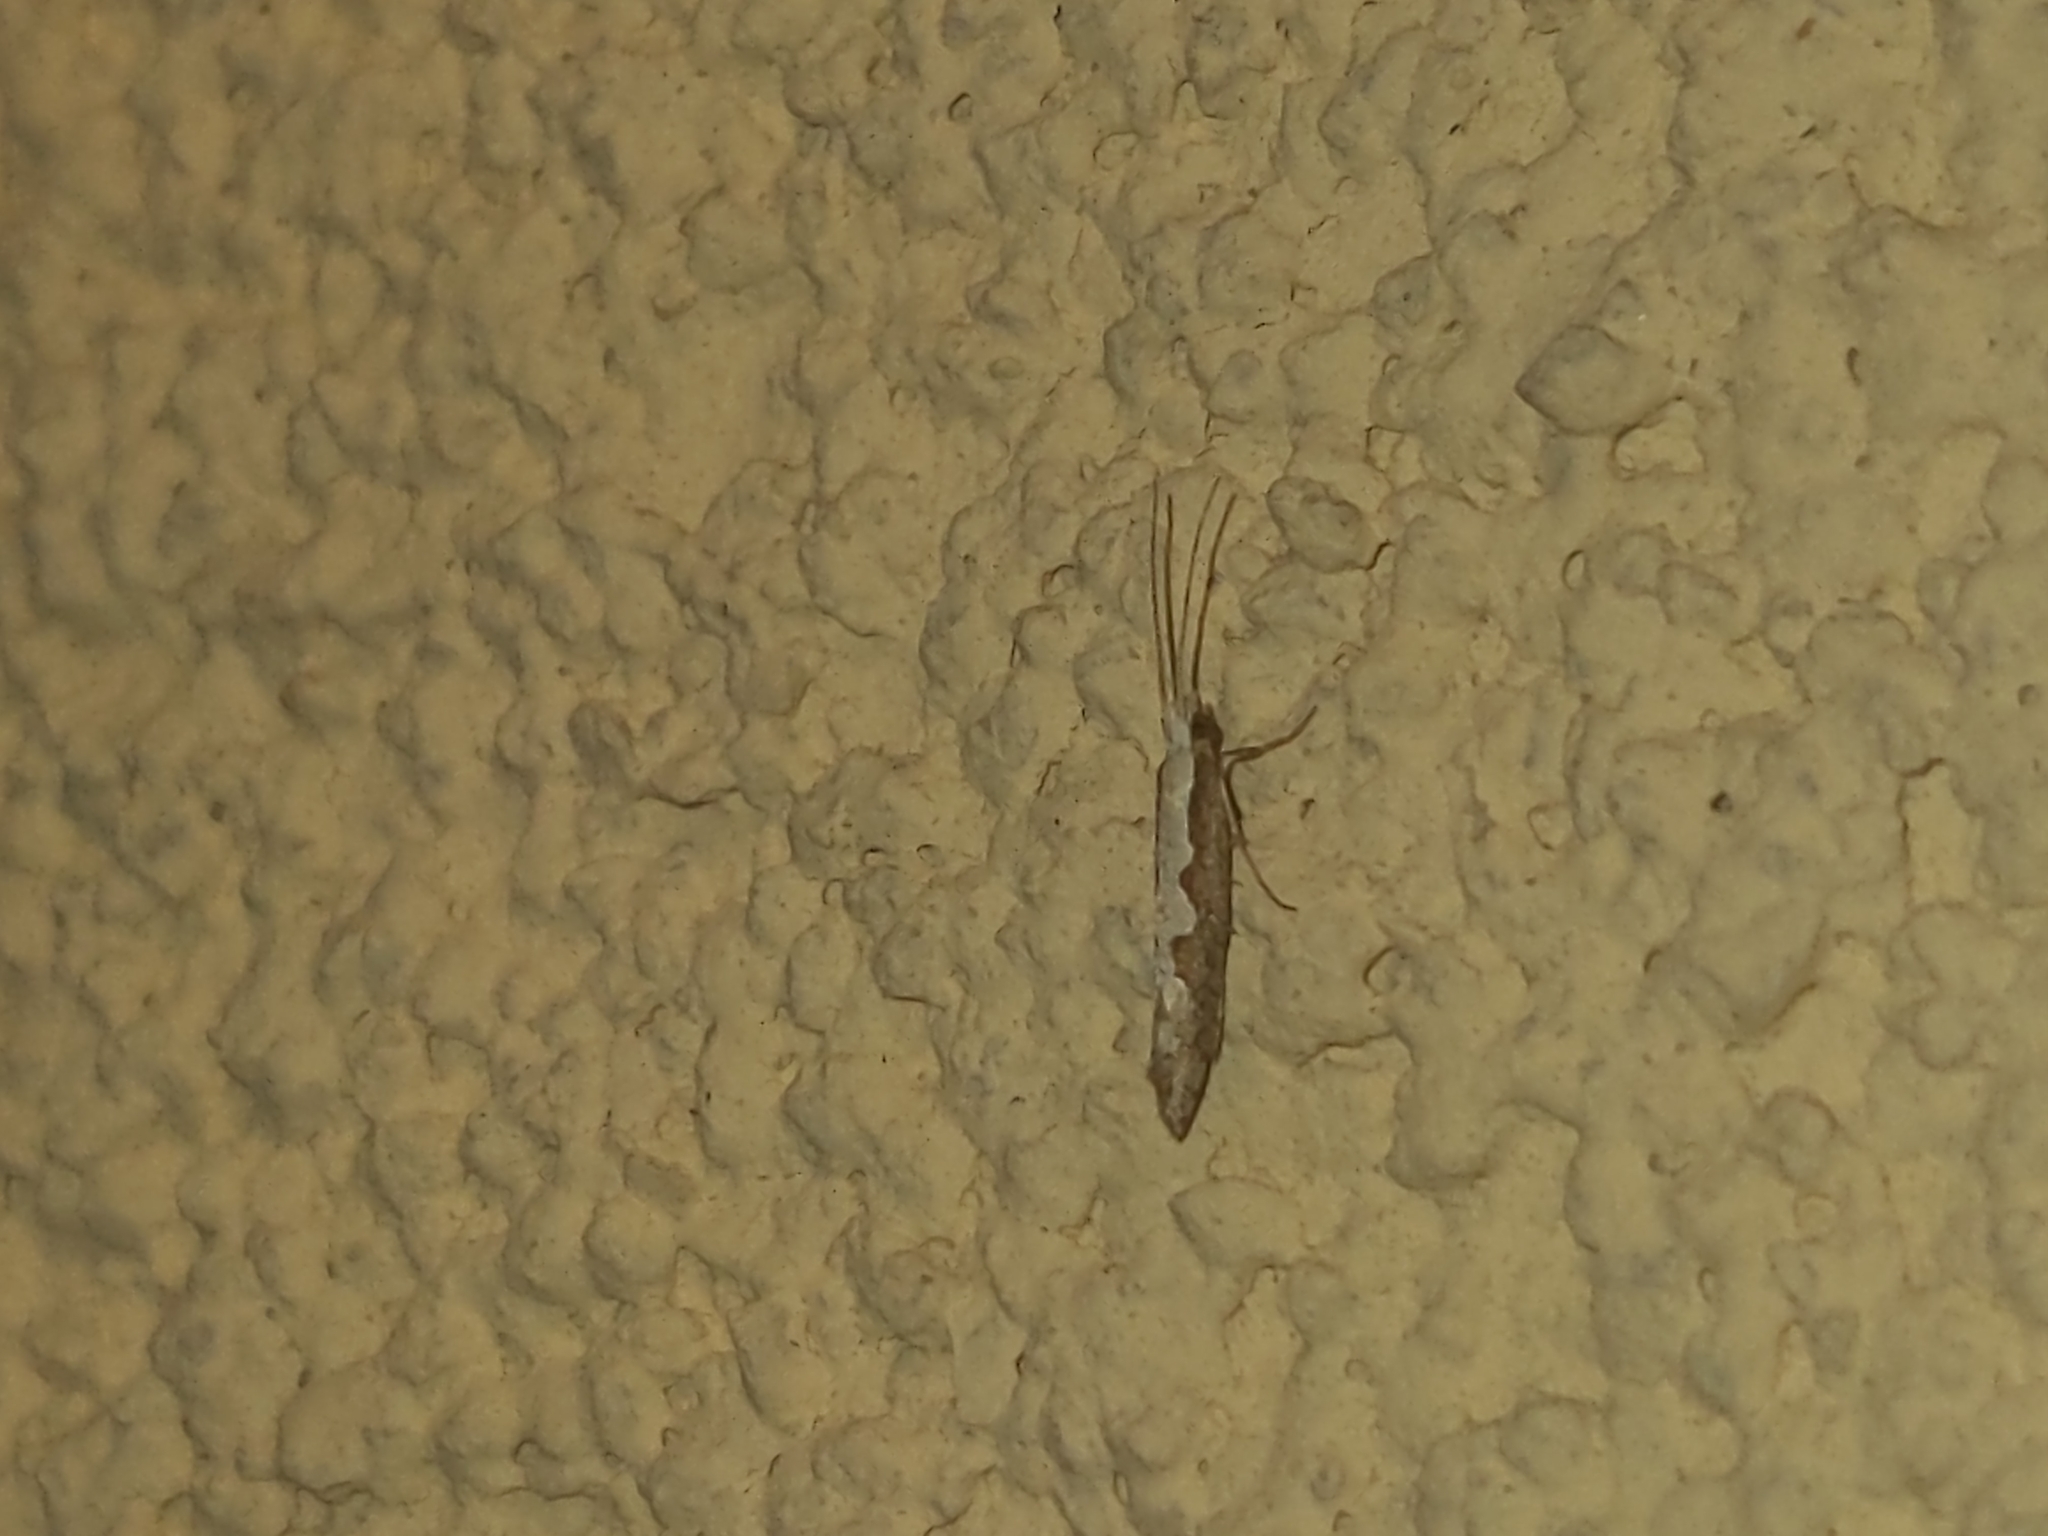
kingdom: Animalia
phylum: Arthropoda
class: Insecta
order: Lepidoptera
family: Plutellidae
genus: Plutella
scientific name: Plutella xylostella
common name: Diamond-back moth
